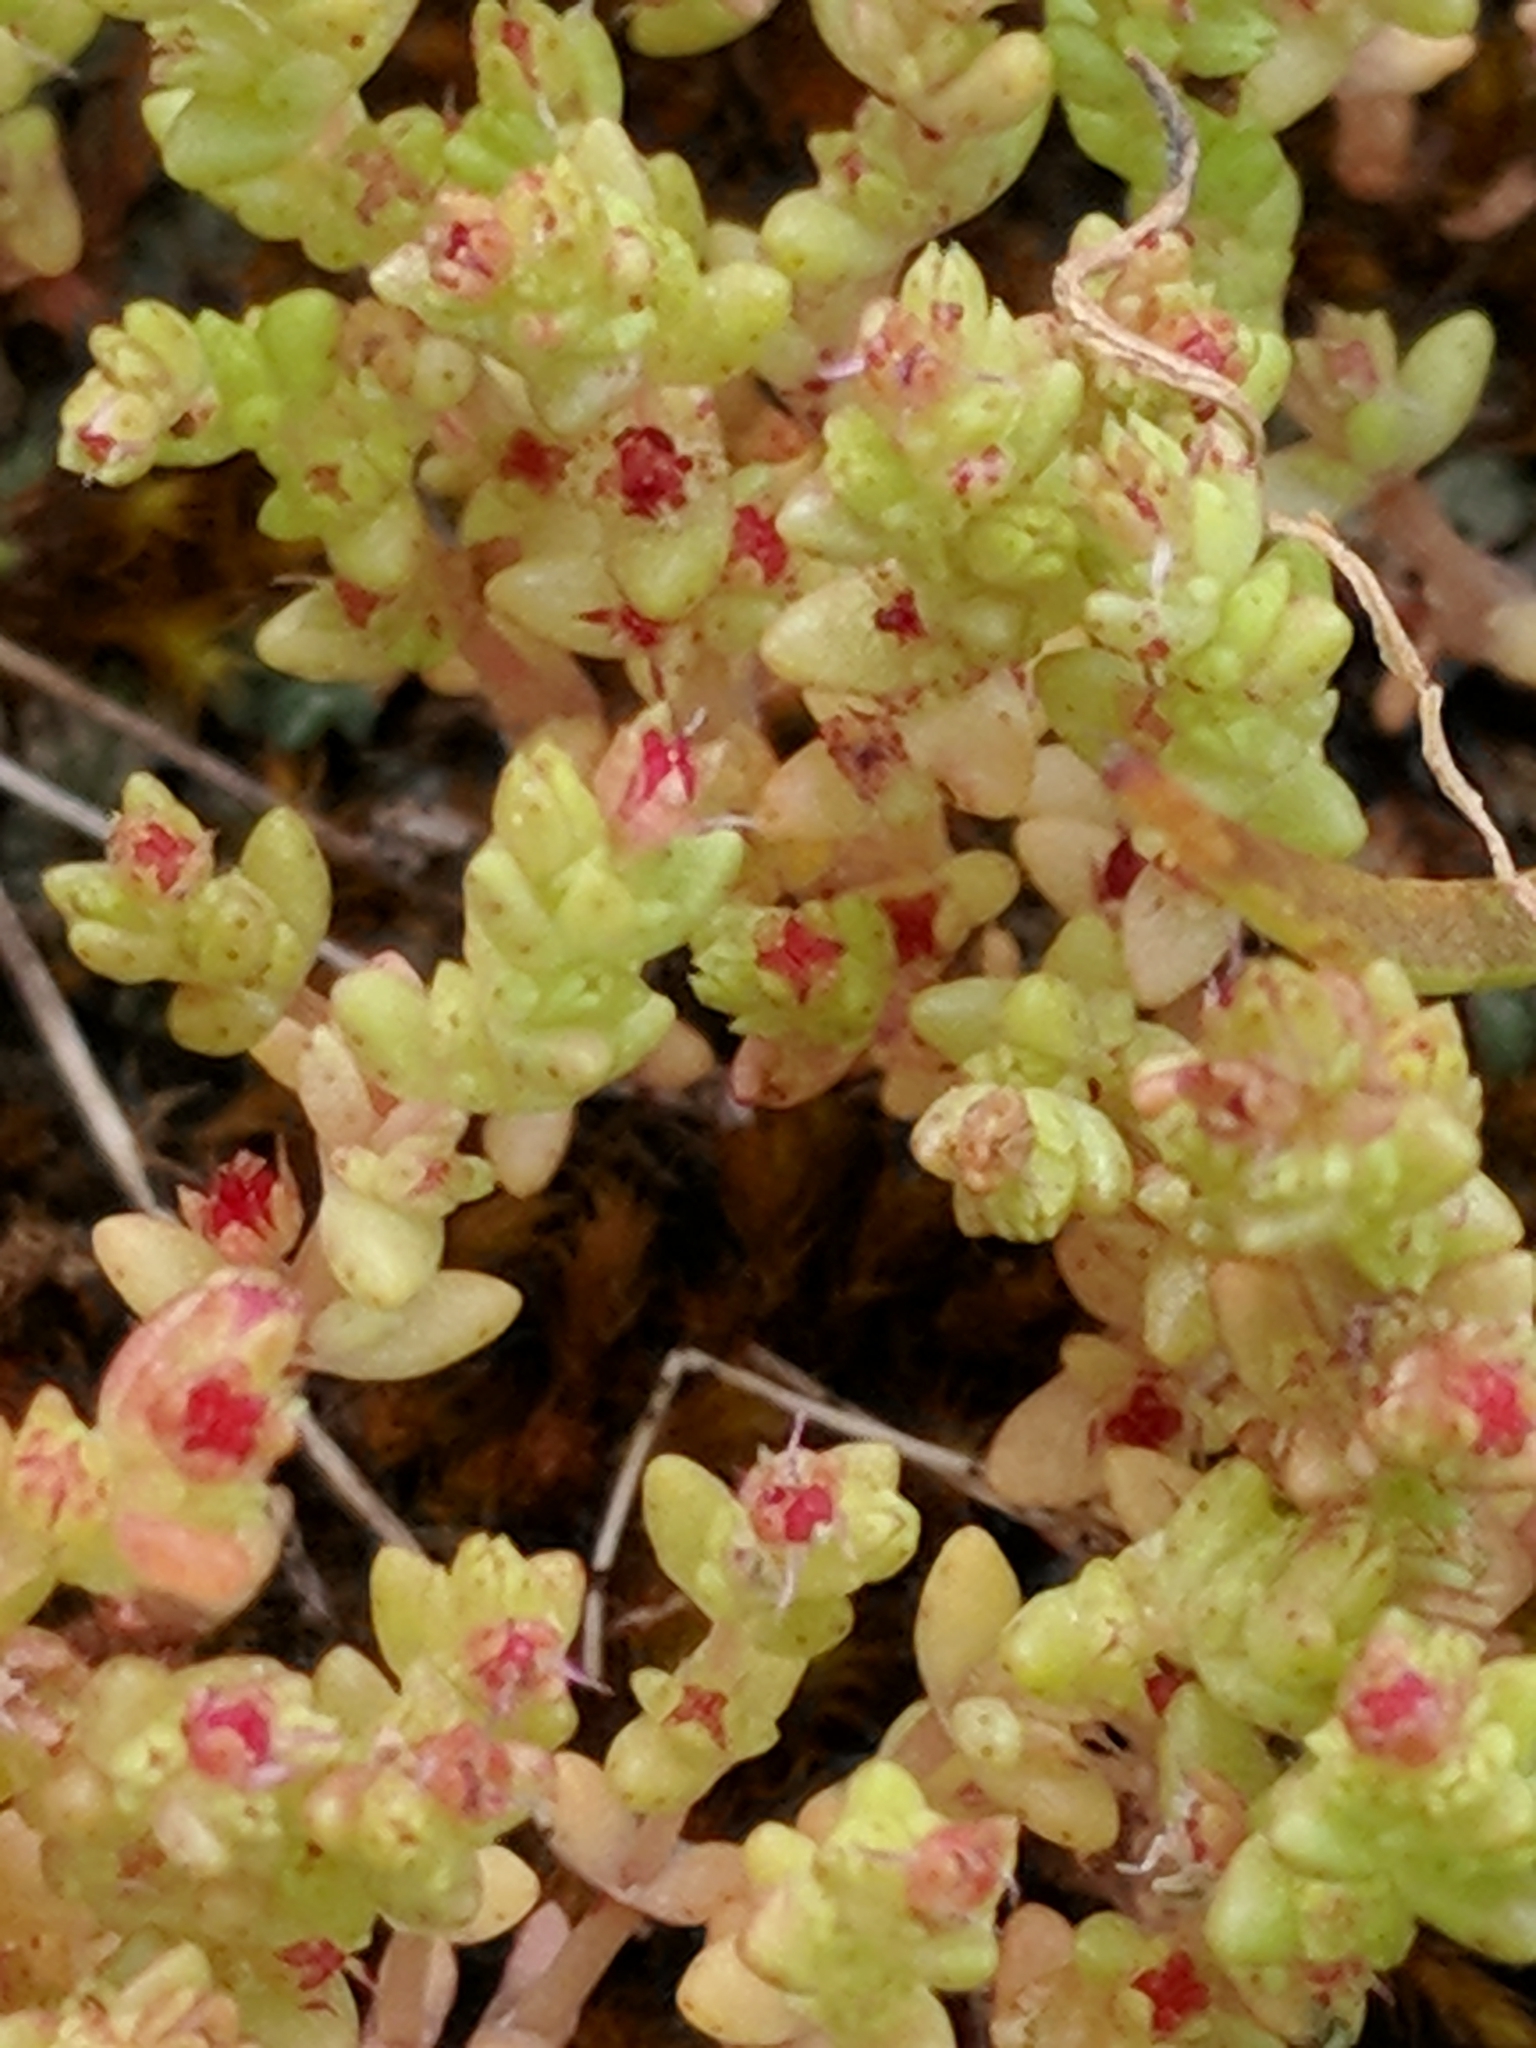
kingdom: Plantae
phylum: Tracheophyta
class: Magnoliopsida
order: Saxifragales
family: Crassulaceae
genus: Crassula
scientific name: Crassula connata
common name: Erect pygmyweed
